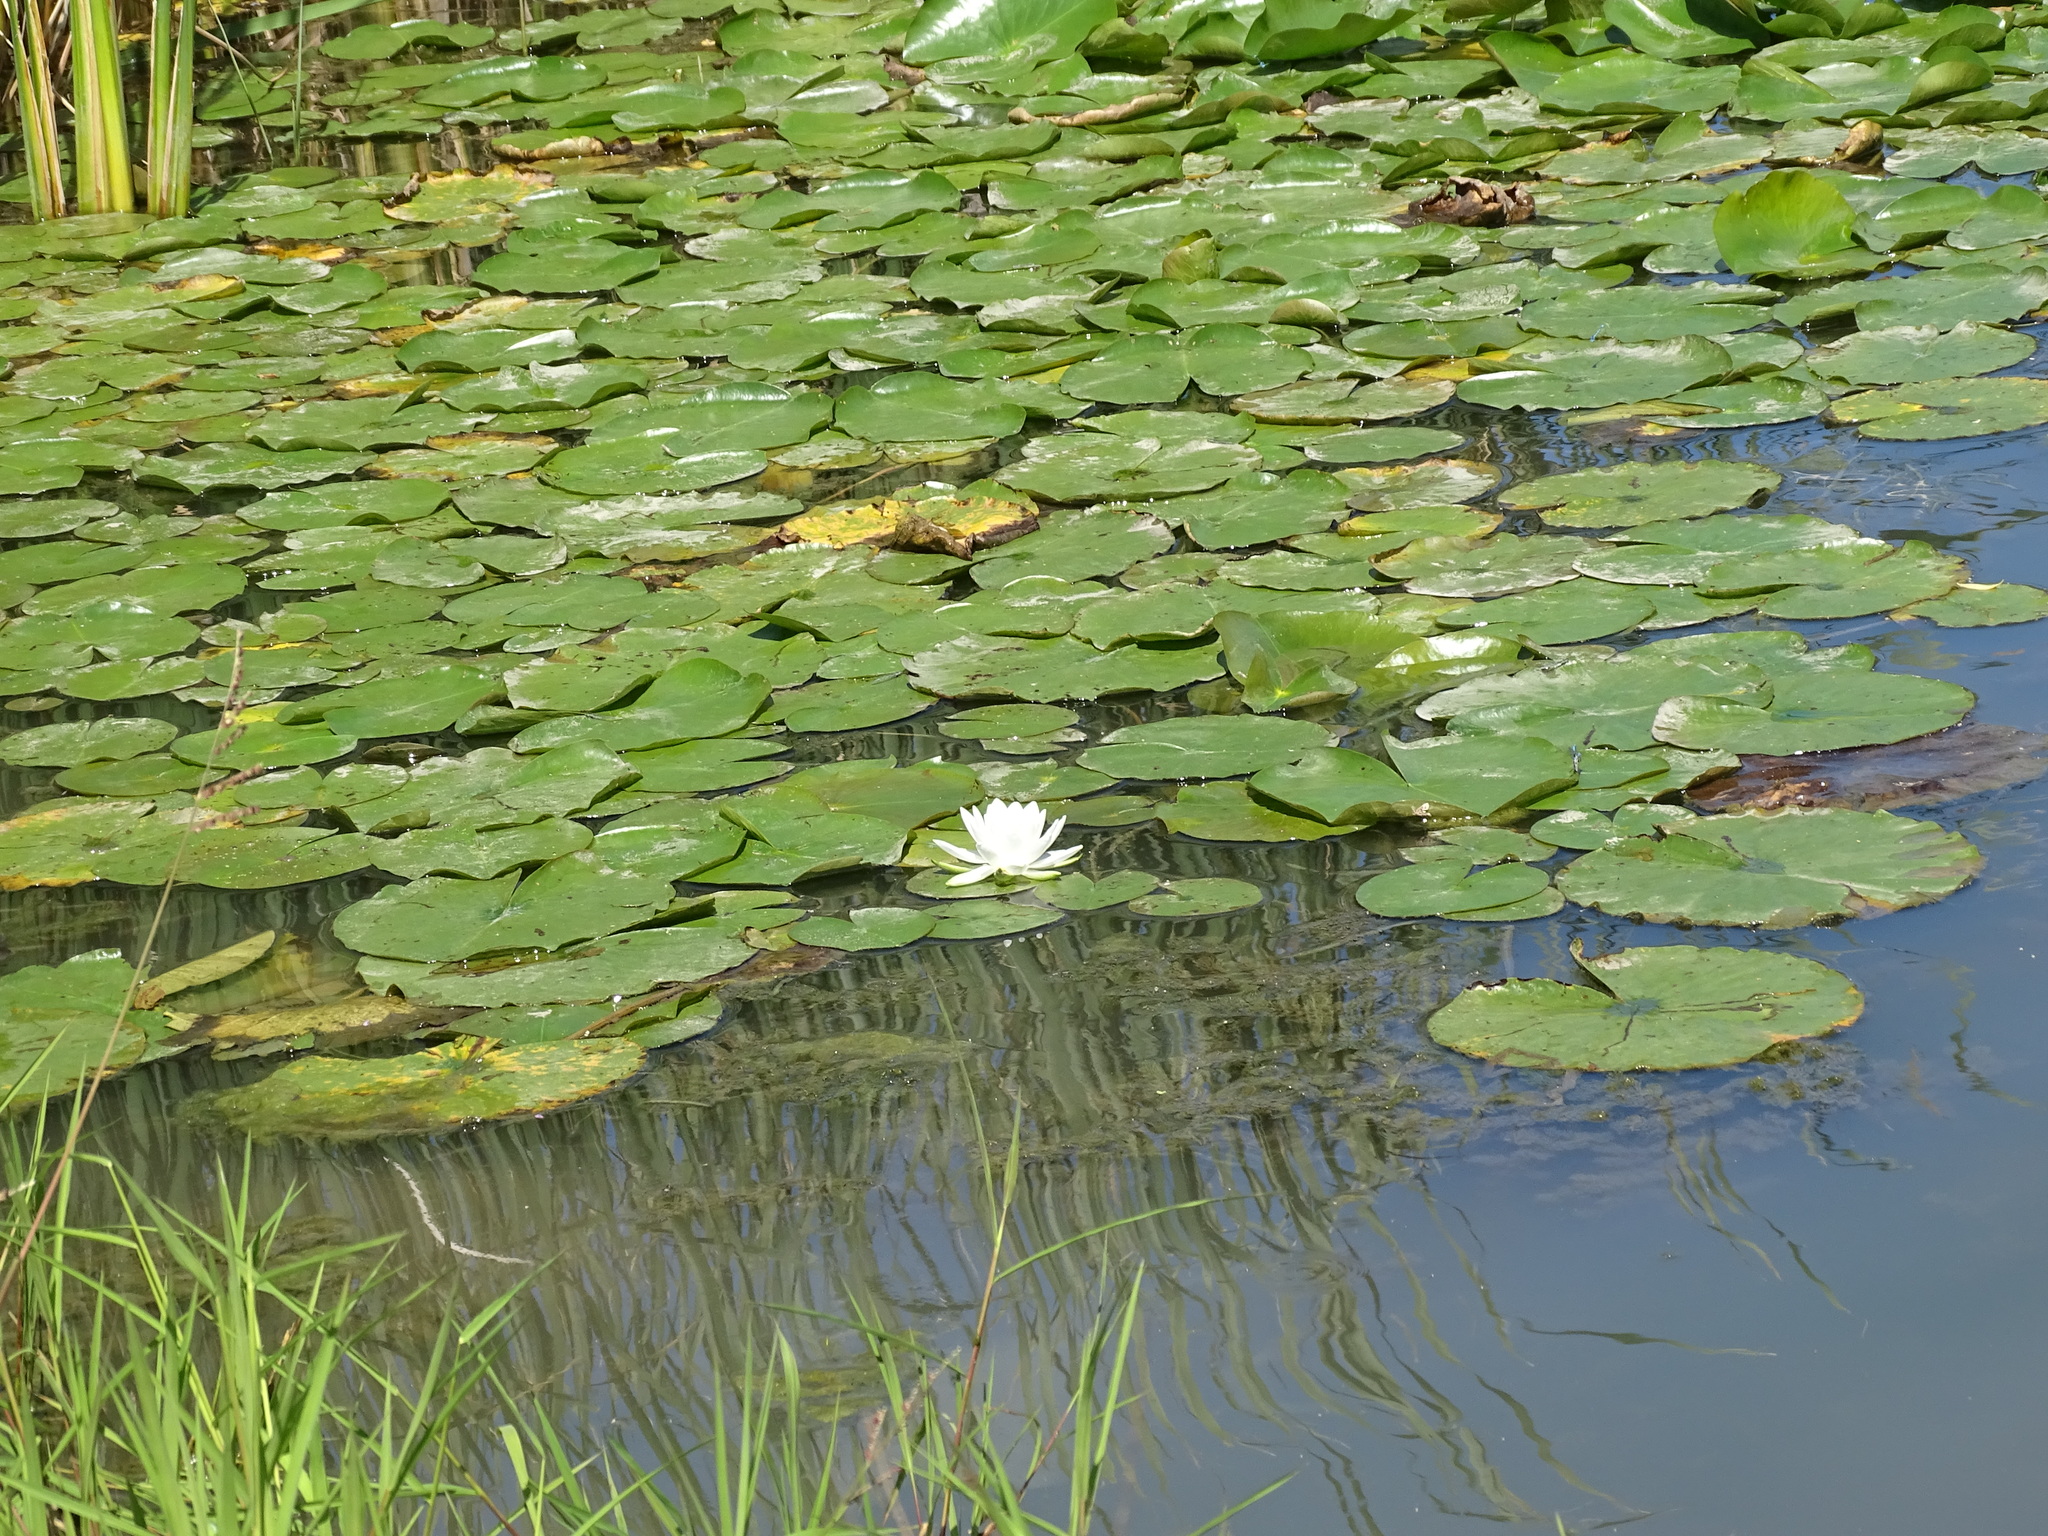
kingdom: Plantae
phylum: Tracheophyta
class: Magnoliopsida
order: Nymphaeales
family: Nymphaeaceae
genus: Nymphaea
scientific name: Nymphaea odorata
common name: Fragrant water-lily
